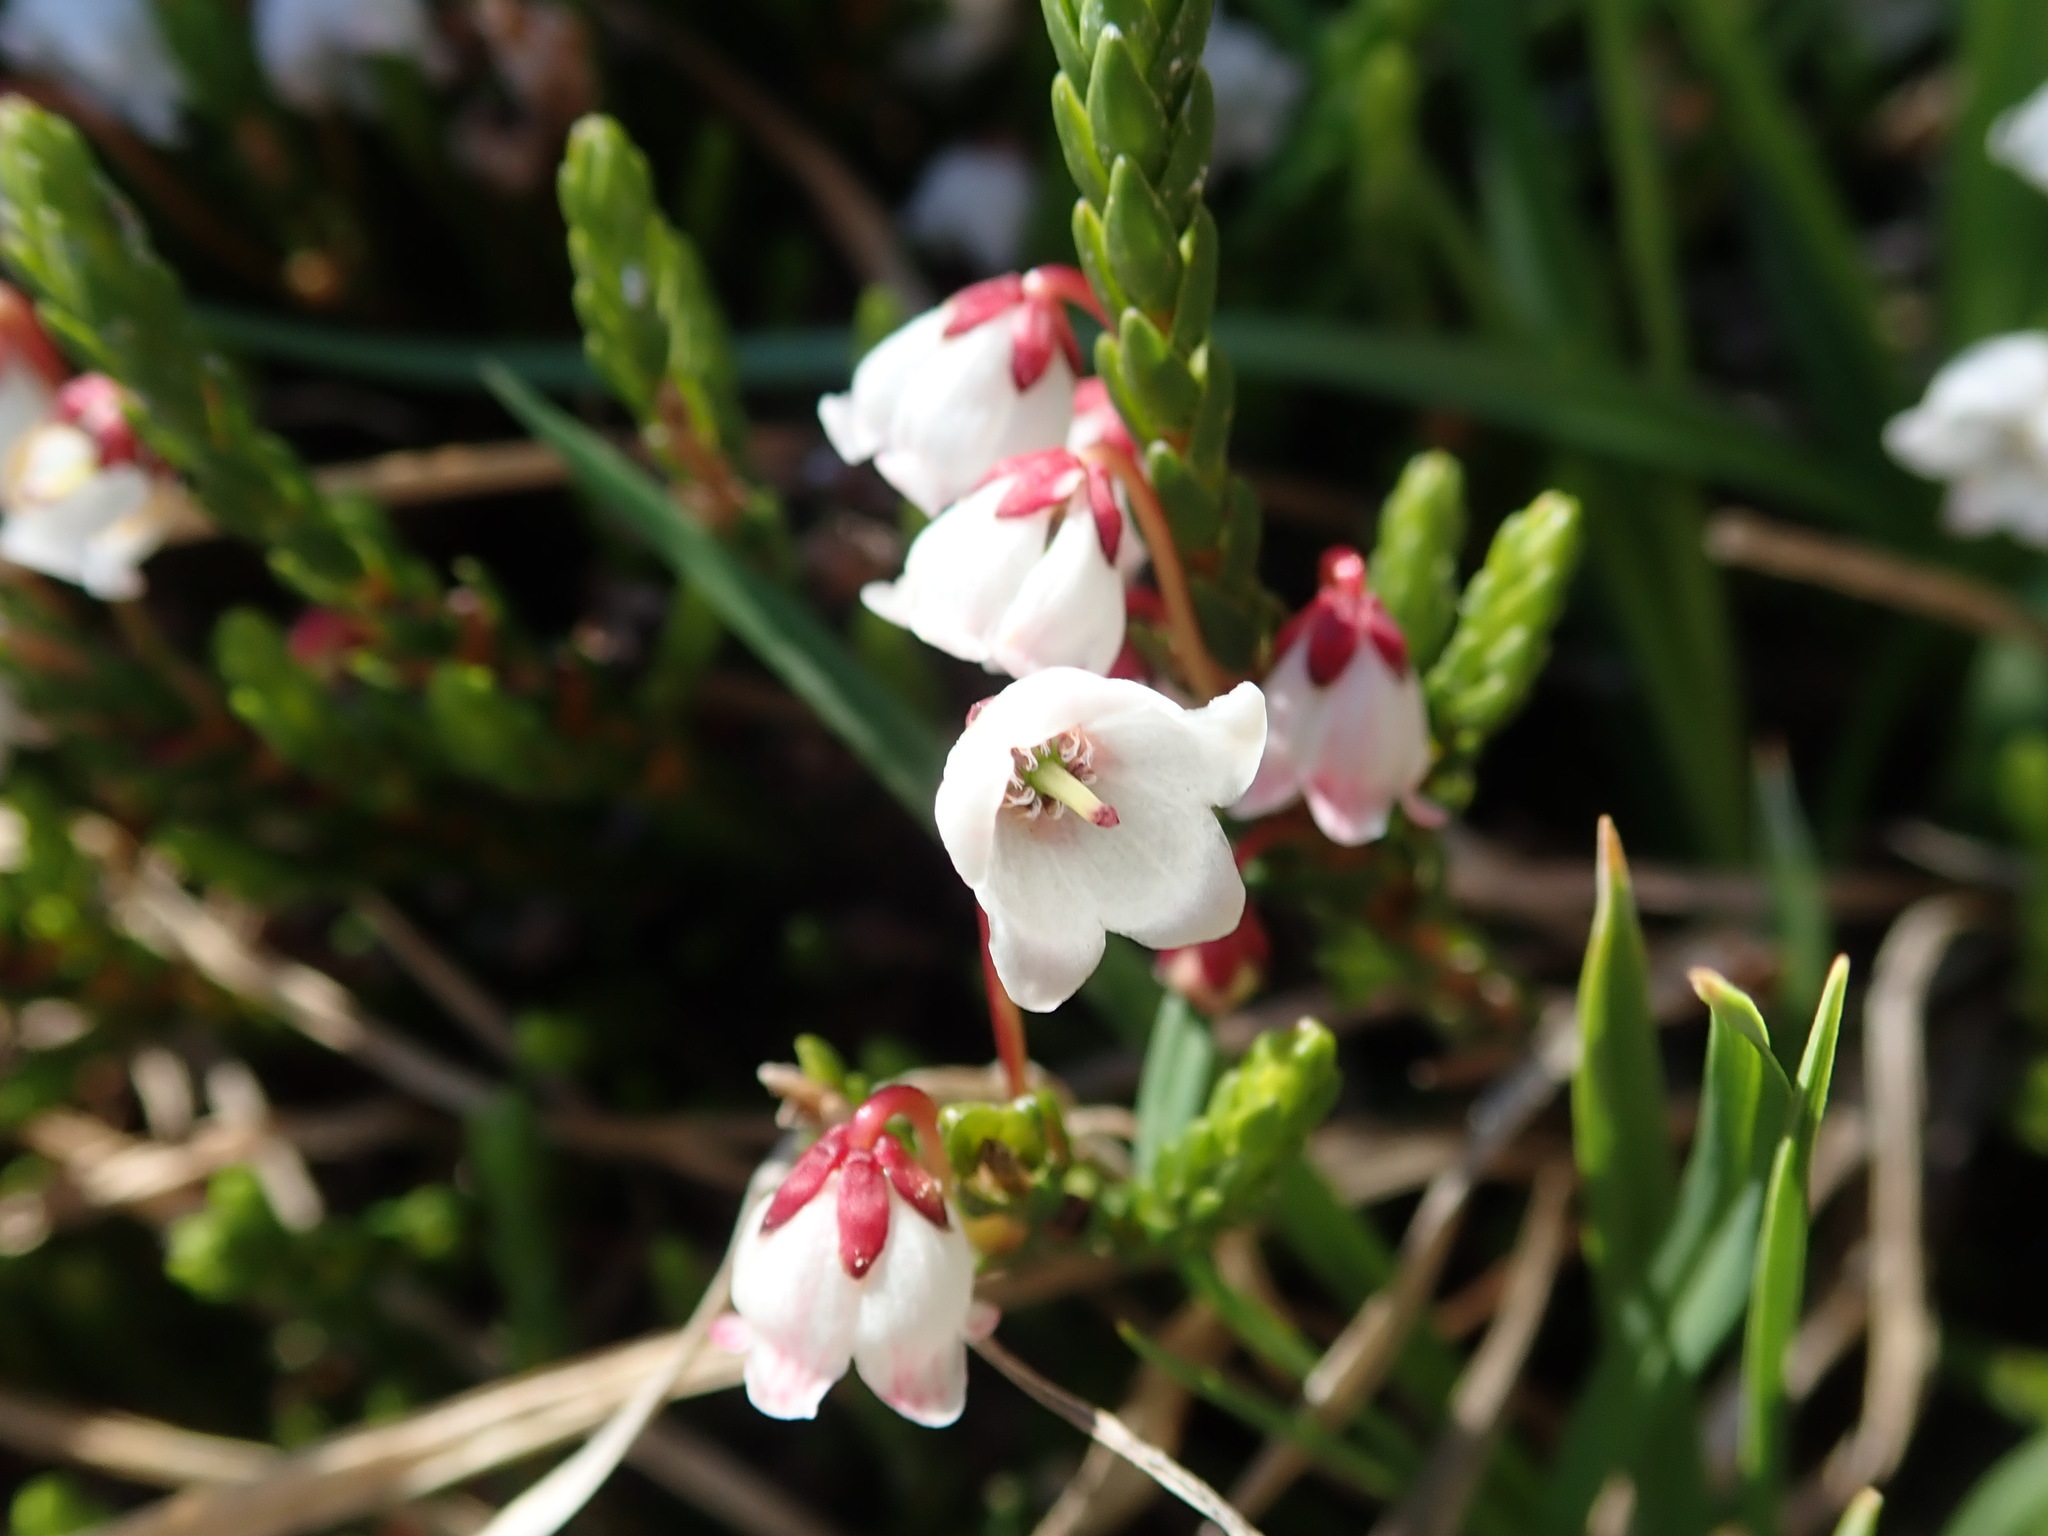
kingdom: Plantae
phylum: Tracheophyta
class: Magnoliopsida
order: Ericales
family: Ericaceae
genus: Cassiope
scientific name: Cassiope mertensiana
